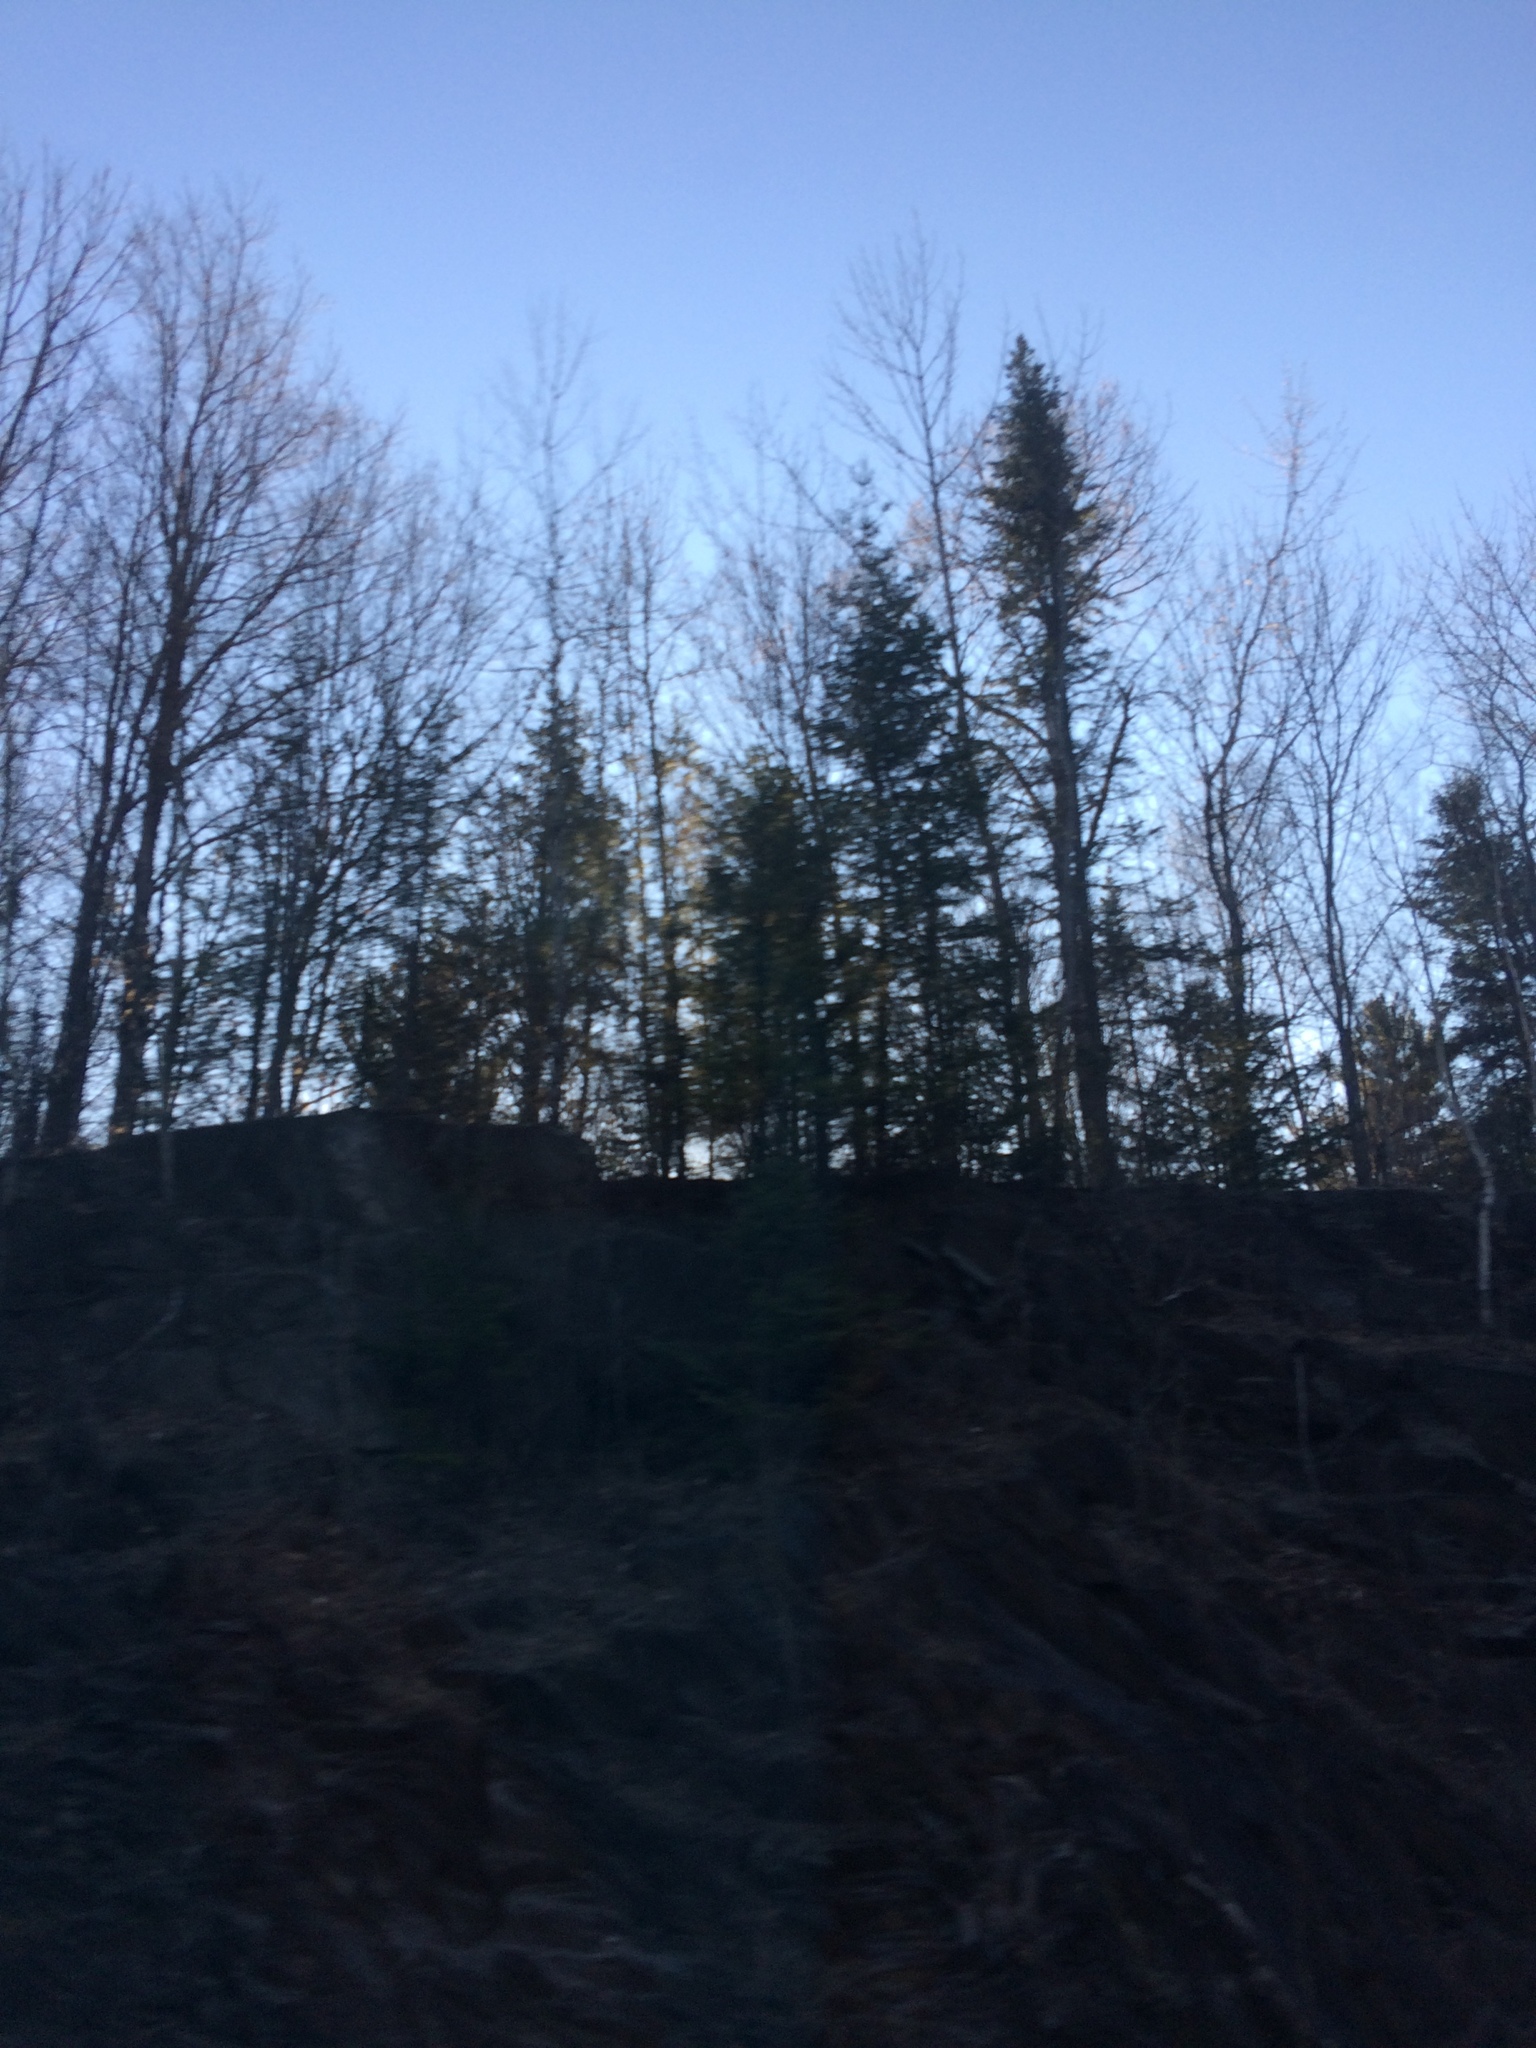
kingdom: Plantae
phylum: Tracheophyta
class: Pinopsida
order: Pinales
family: Pinaceae
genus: Abies
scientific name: Abies balsamea
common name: Balsam fir
